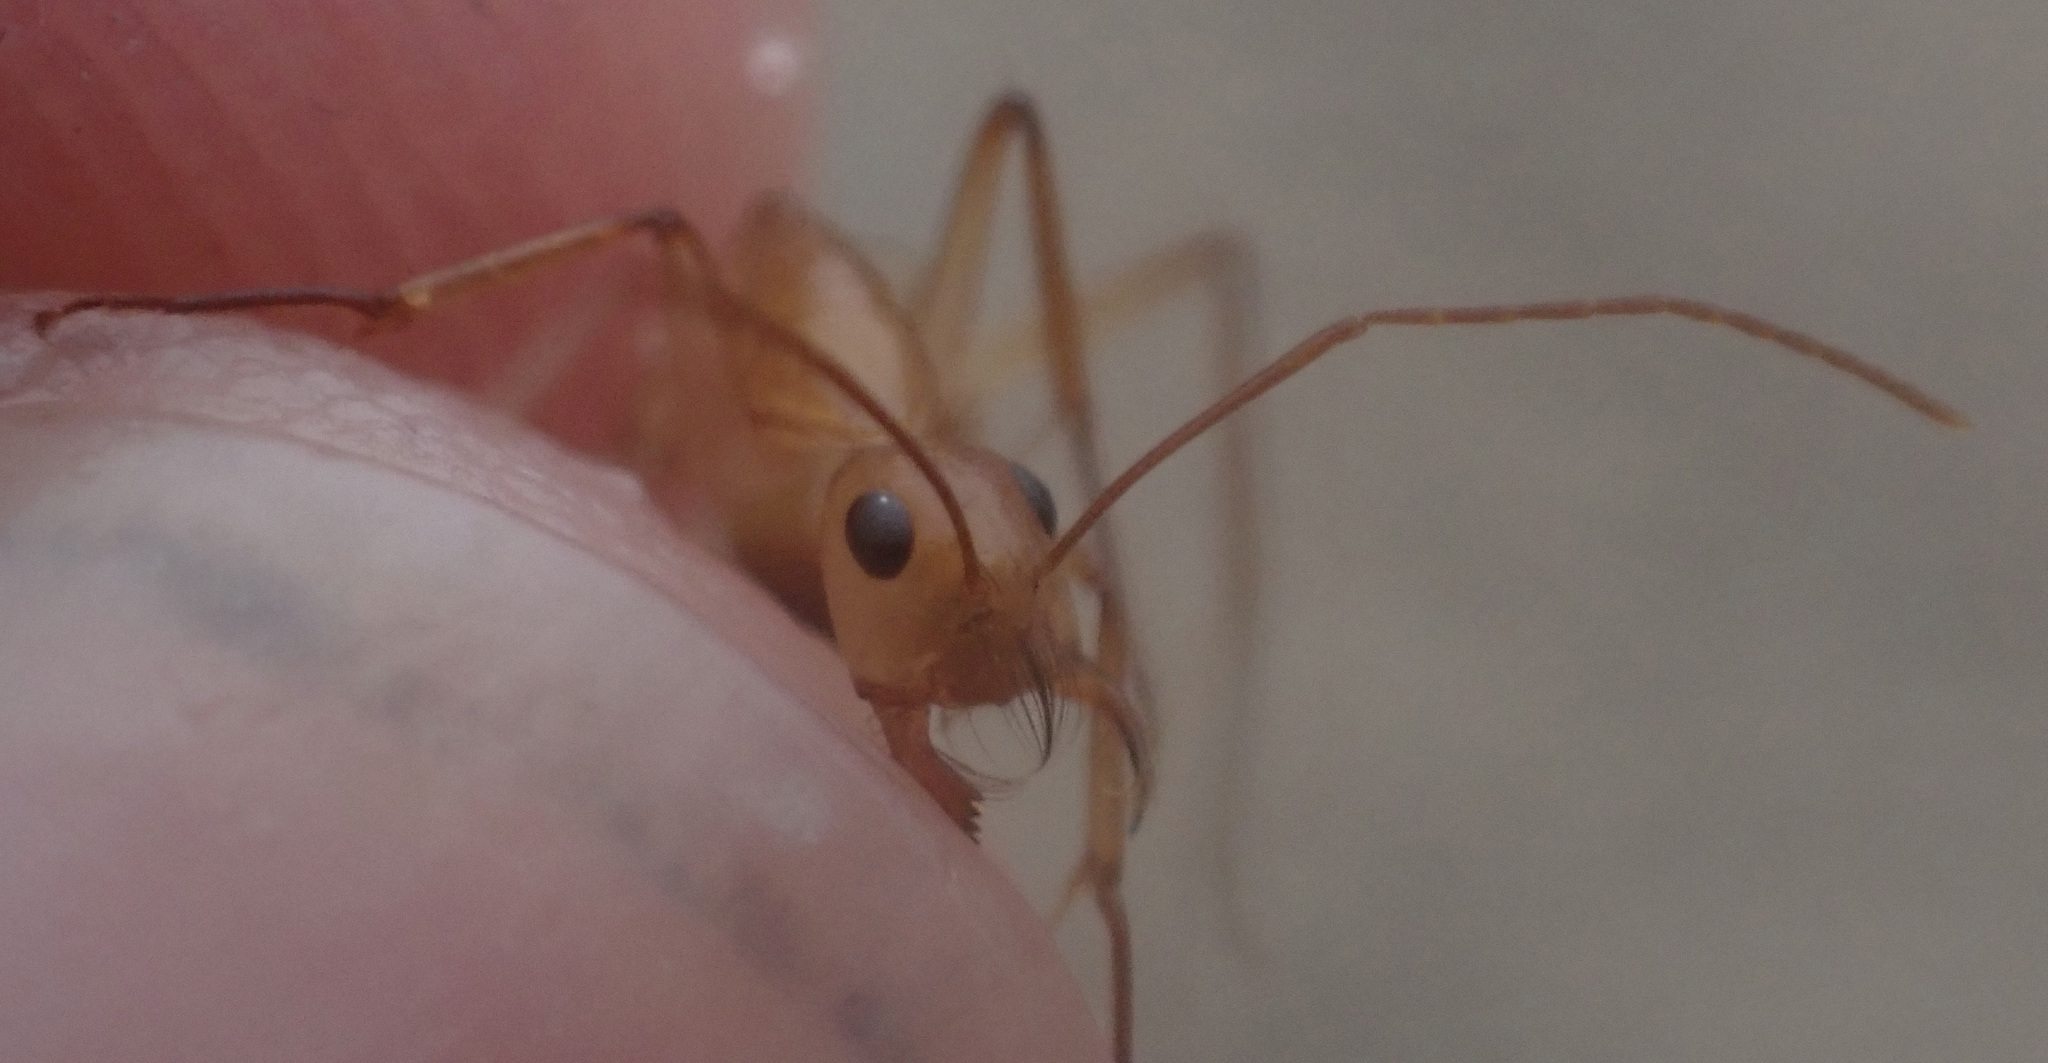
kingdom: Animalia
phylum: Arthropoda
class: Insecta
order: Hymenoptera
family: Formicidae
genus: Camponotus
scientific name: Camponotus mystaceus
